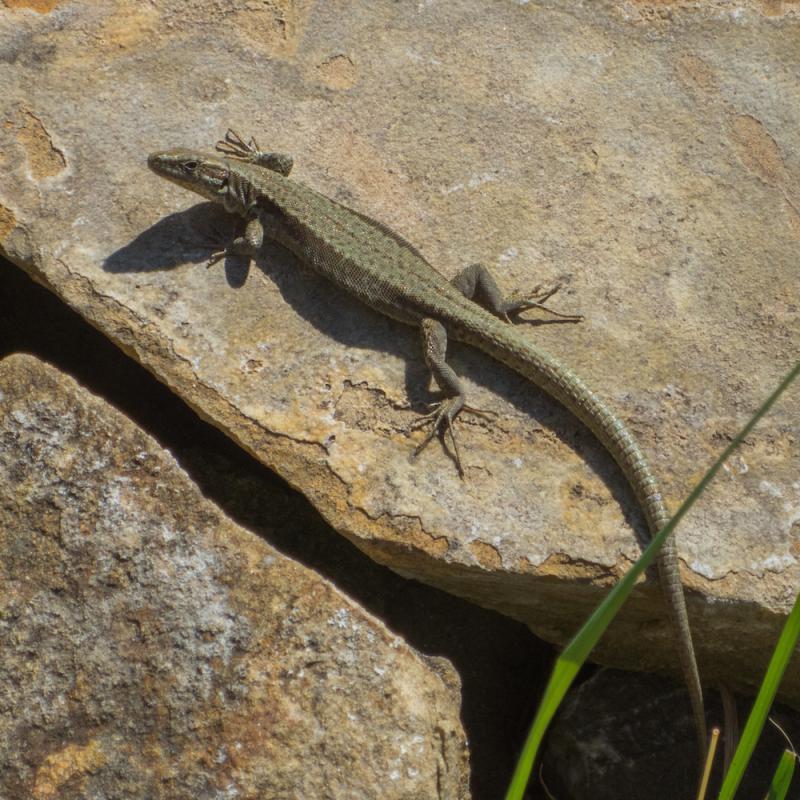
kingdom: Animalia
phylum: Chordata
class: Squamata
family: Lacertidae
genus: Podarcis
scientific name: Podarcis muralis
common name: Common wall lizard
